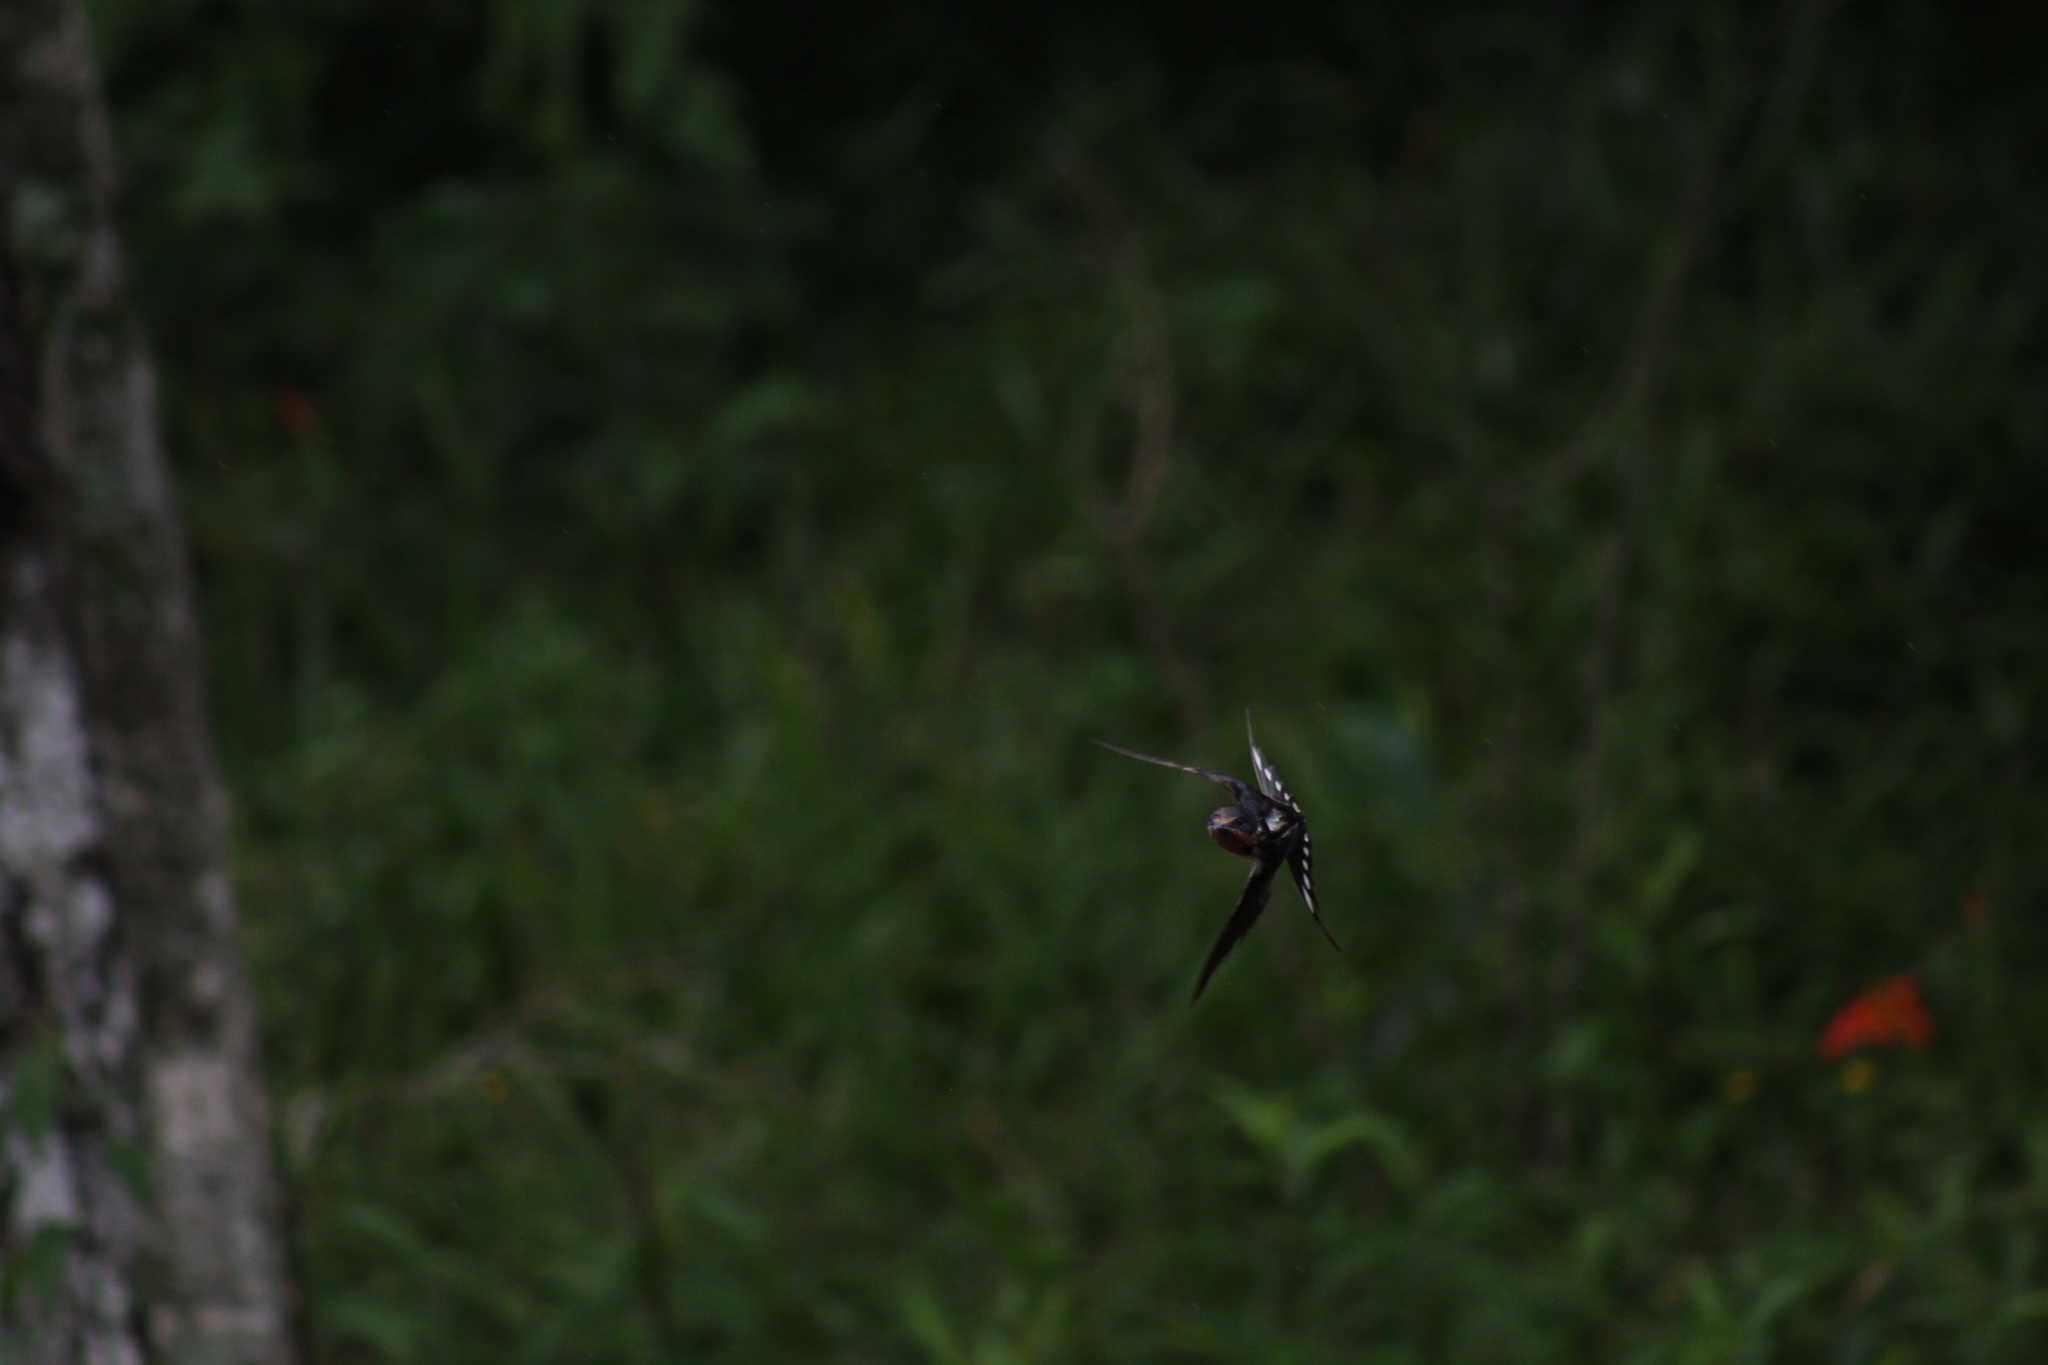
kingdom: Animalia
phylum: Chordata
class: Aves
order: Passeriformes
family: Hirundinidae
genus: Hirundo
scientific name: Hirundo rustica
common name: Barn swallow
